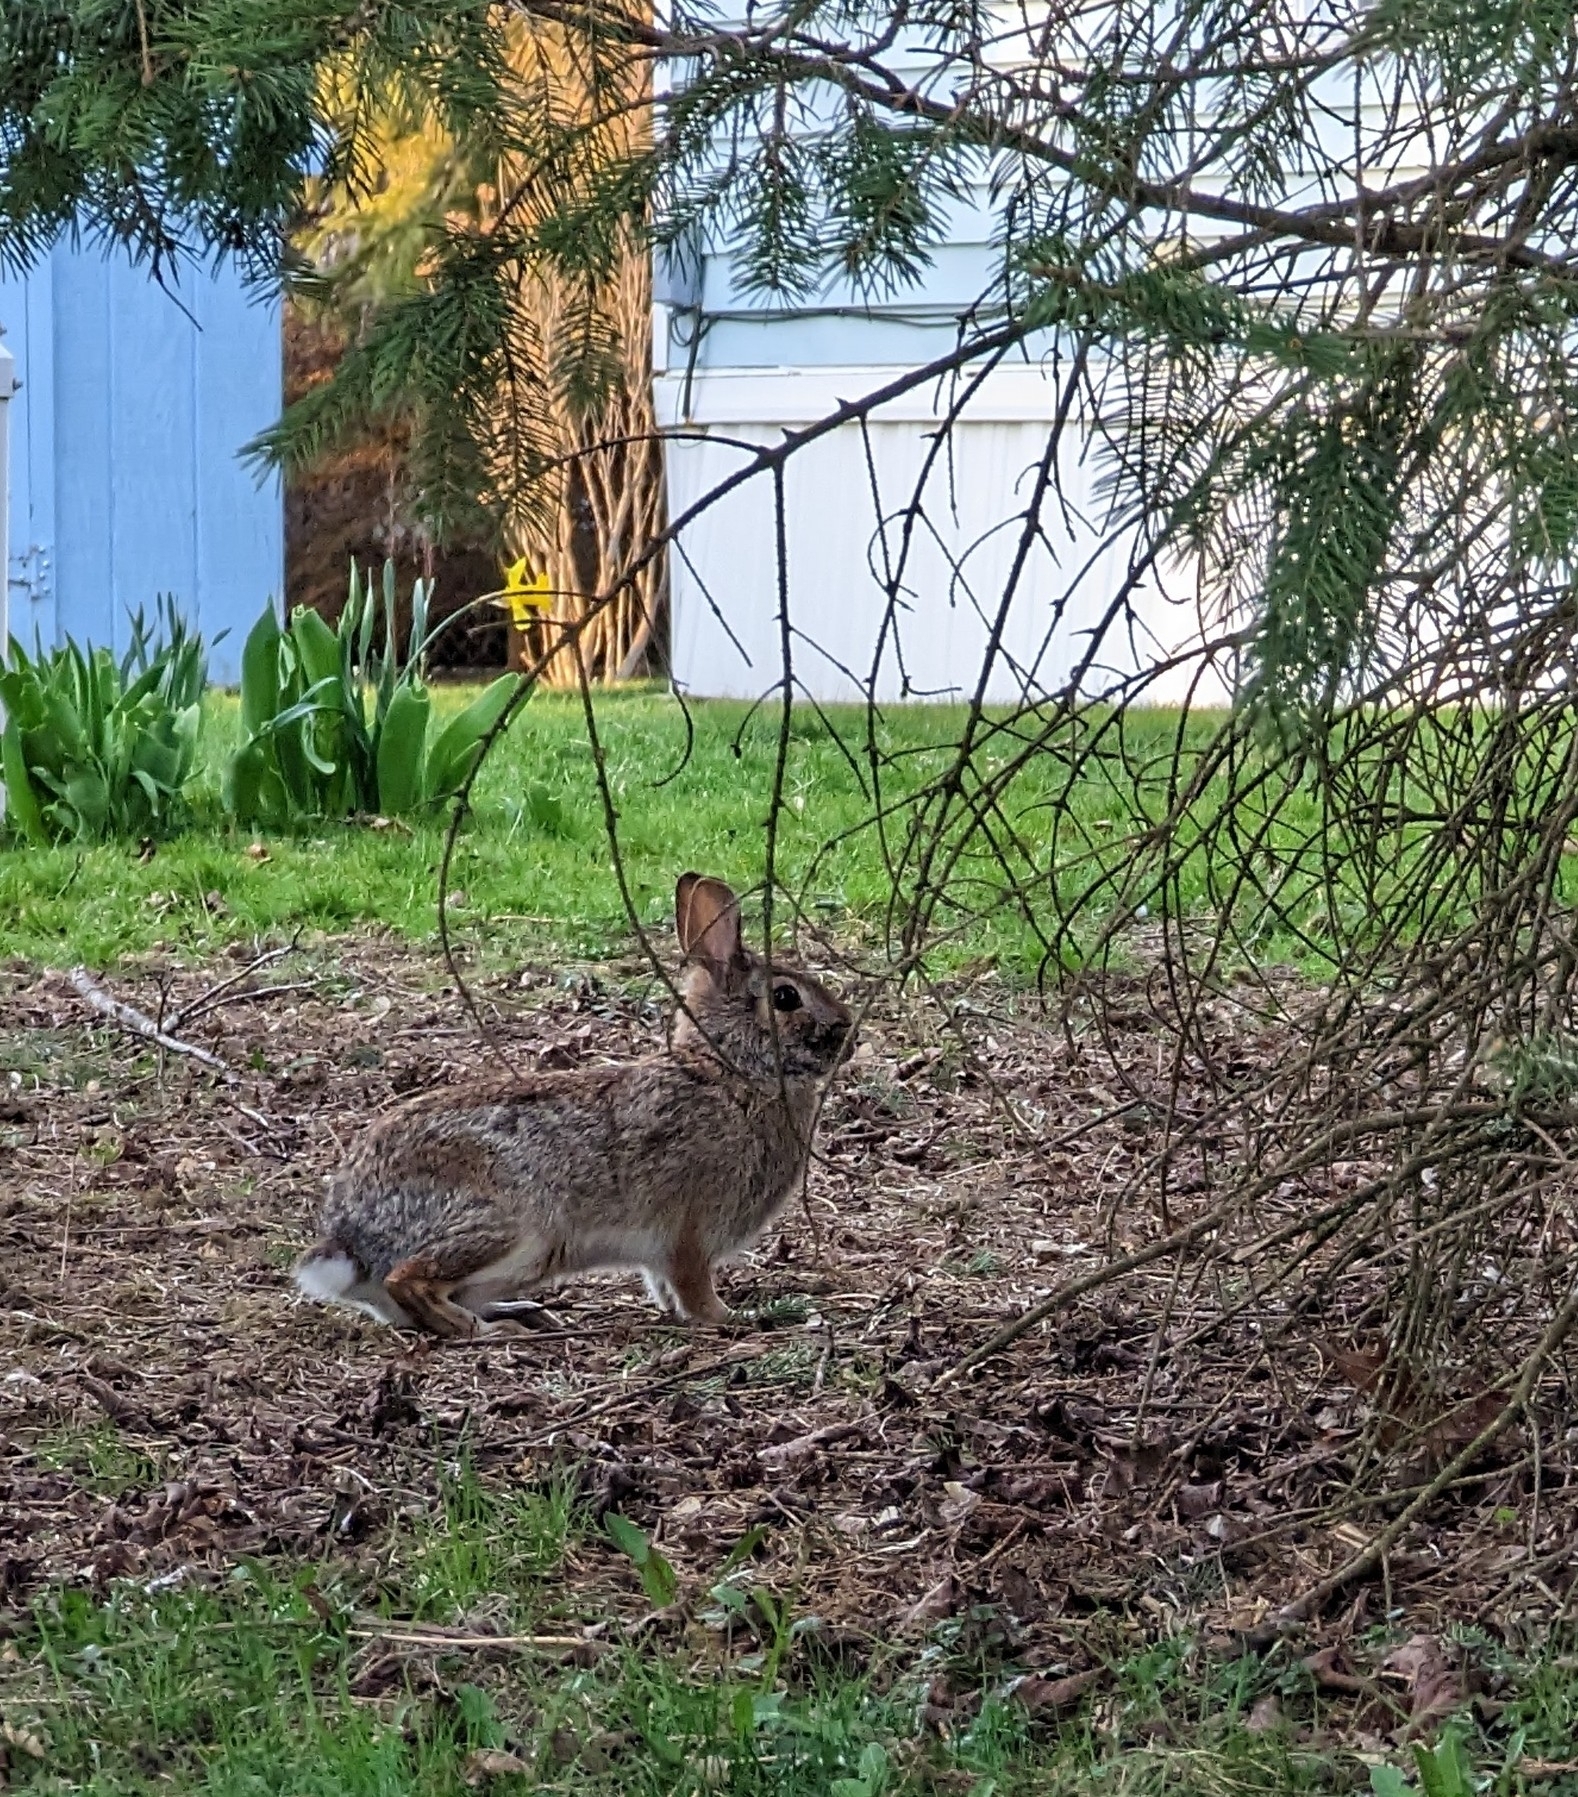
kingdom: Animalia
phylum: Chordata
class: Mammalia
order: Lagomorpha
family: Leporidae
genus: Sylvilagus
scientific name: Sylvilagus floridanus
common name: Eastern cottontail
